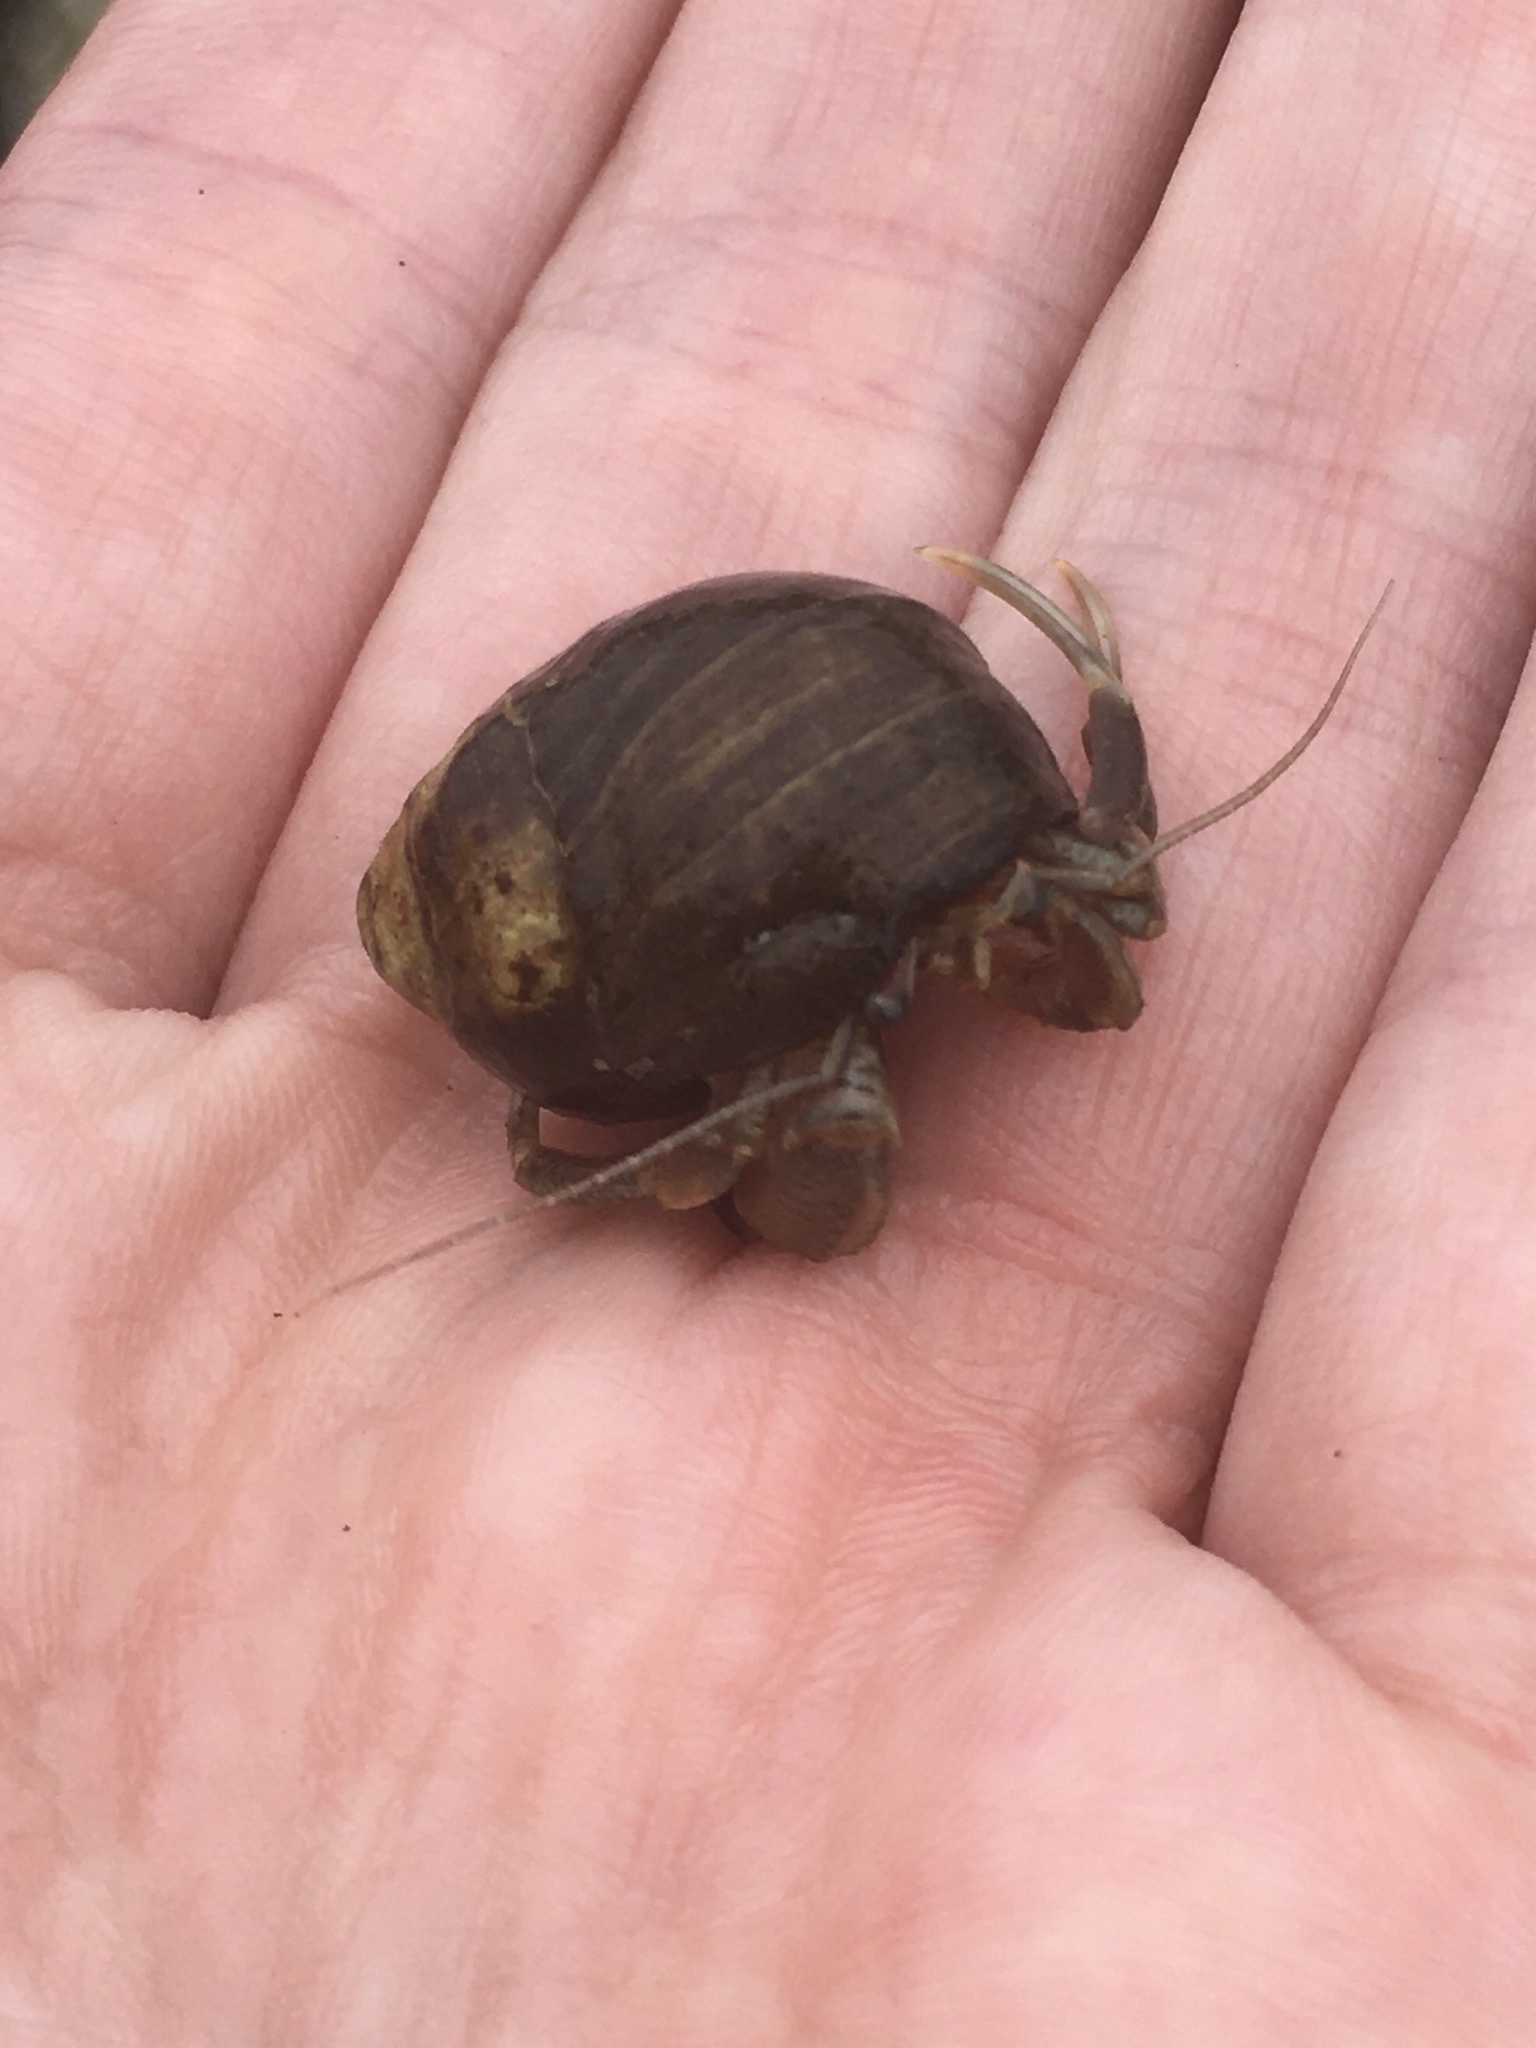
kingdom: Animalia
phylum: Arthropoda
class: Malacostraca
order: Decapoda
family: Paguridae
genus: Pagurus
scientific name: Pagurus longicarpus
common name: Long-armed hermit crab
